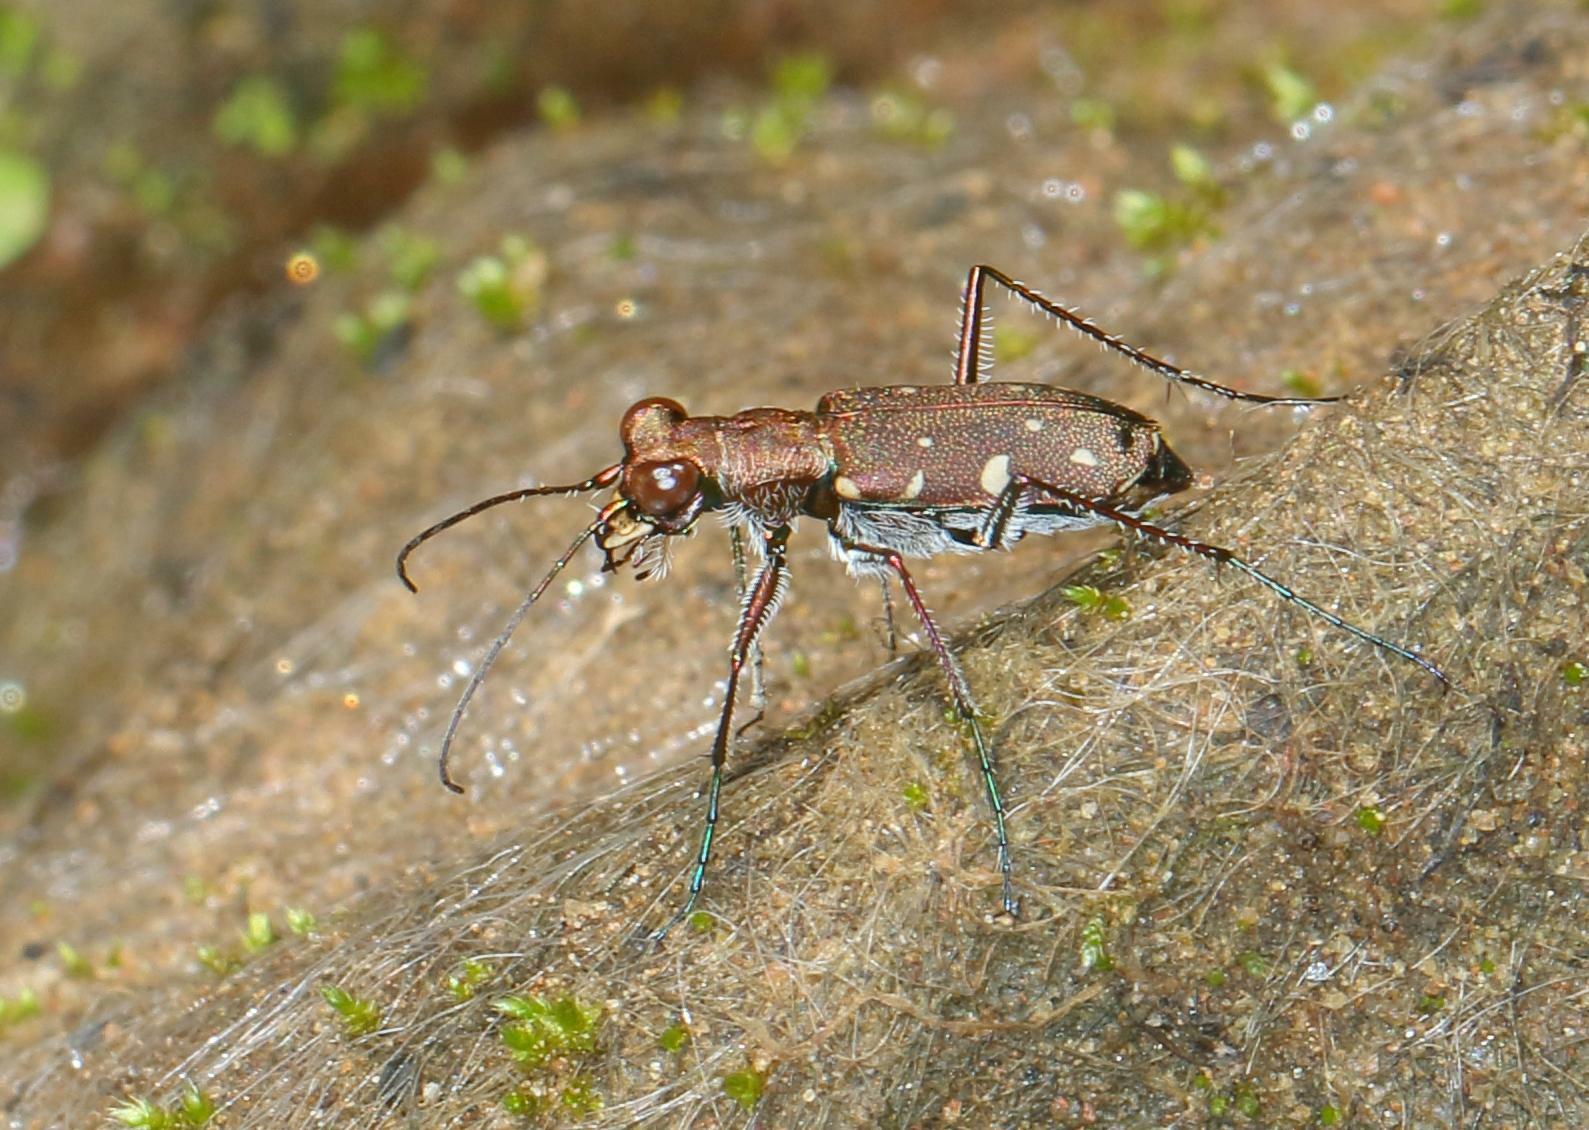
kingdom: Animalia
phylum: Arthropoda
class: Insecta
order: Coleoptera
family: Carabidae
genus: Cylindera
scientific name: Cylindera disjuncta
